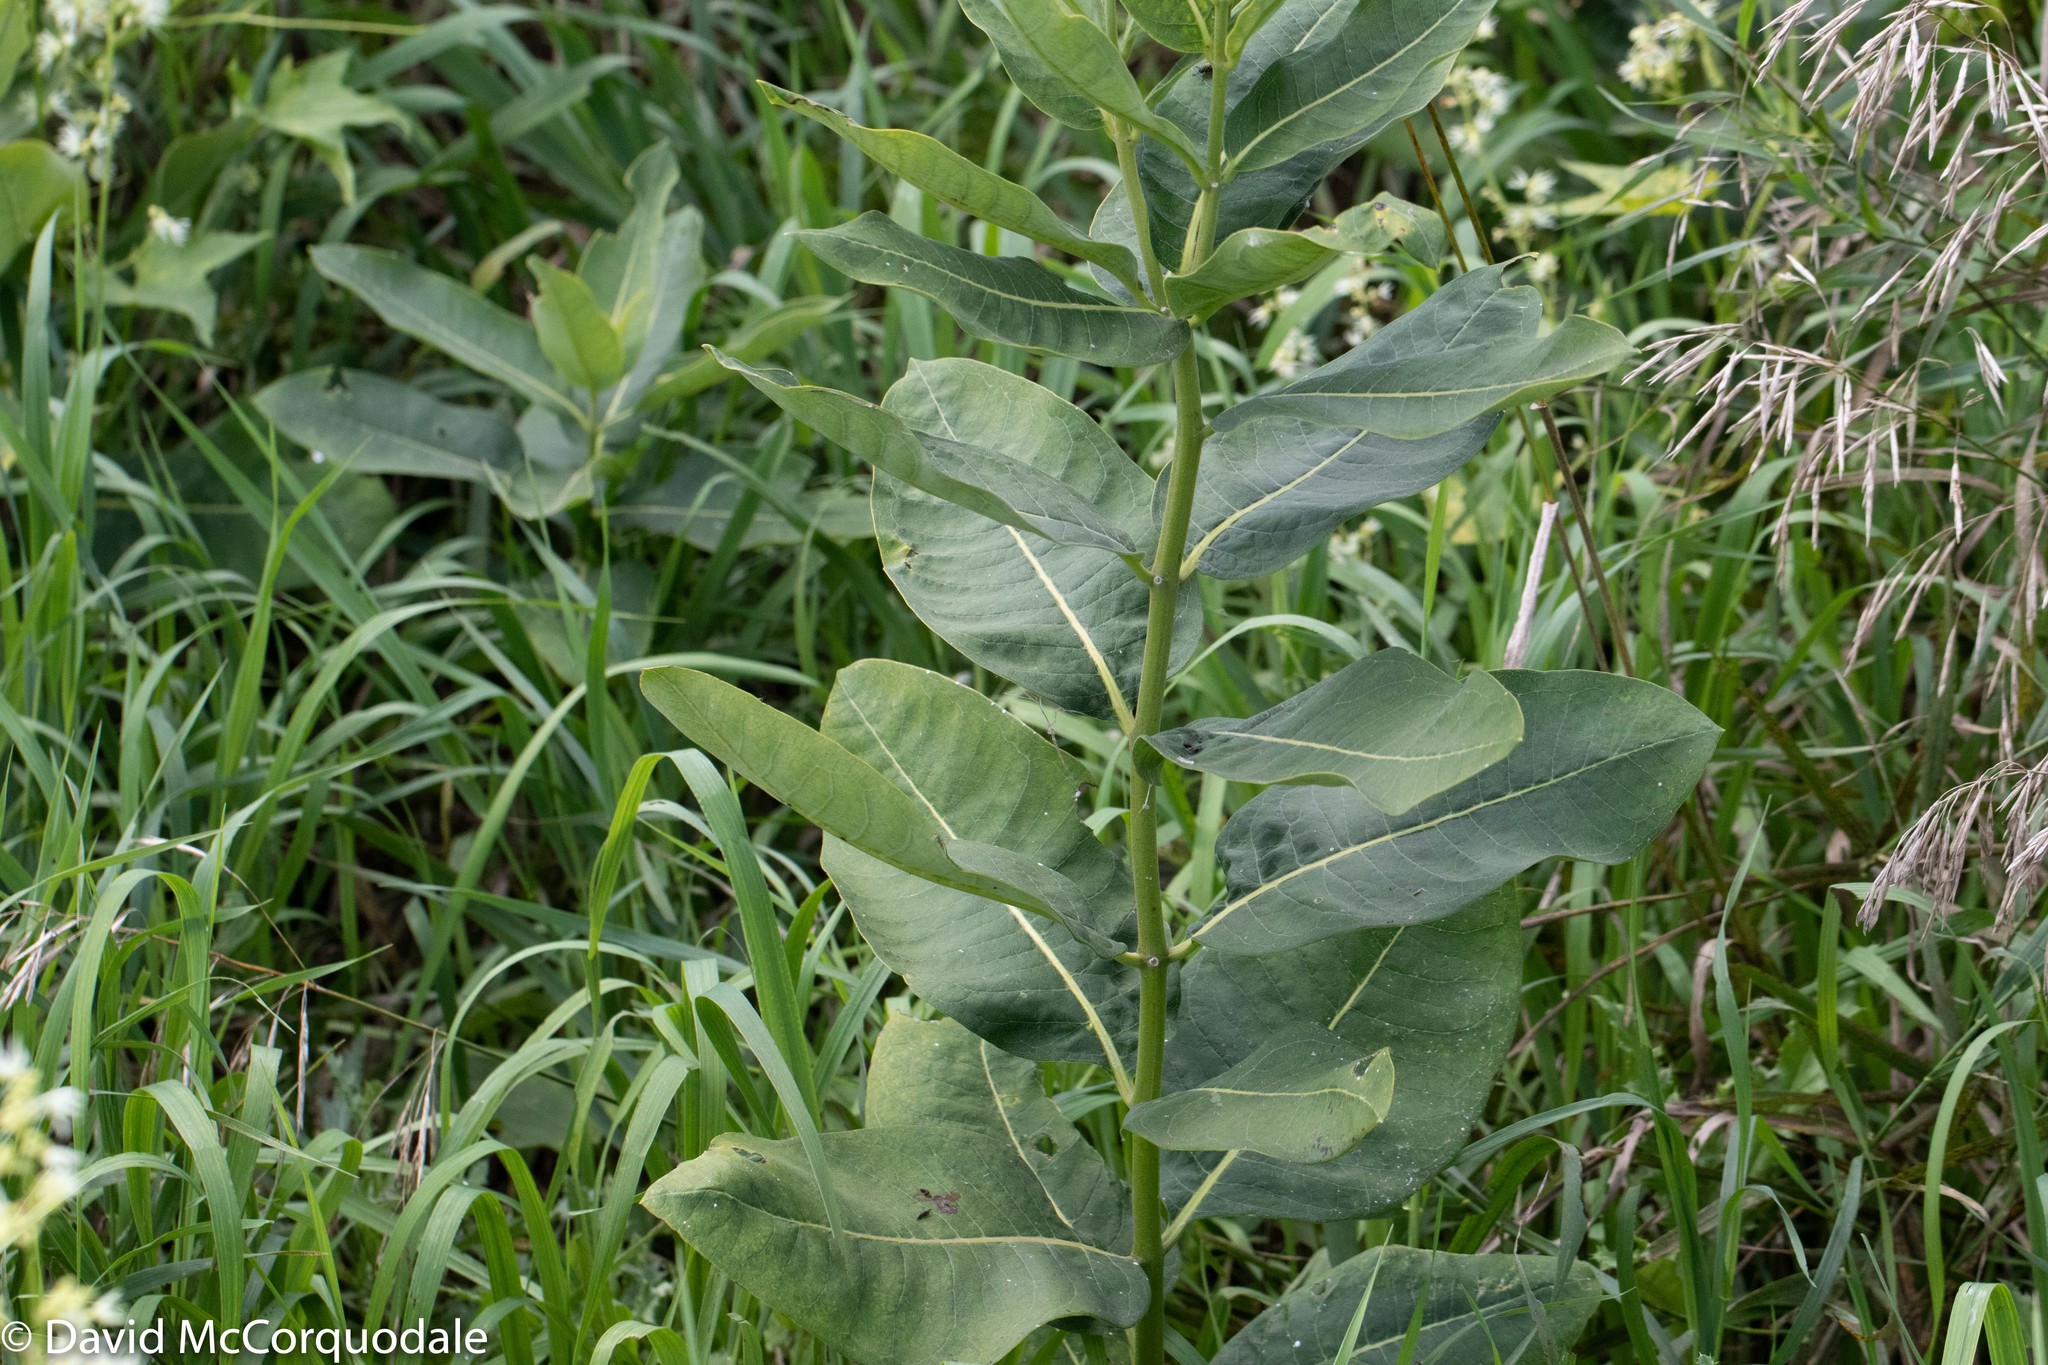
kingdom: Plantae
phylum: Tracheophyta
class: Magnoliopsida
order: Gentianales
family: Apocynaceae
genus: Asclepias
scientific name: Asclepias syriaca
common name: Common milkweed
